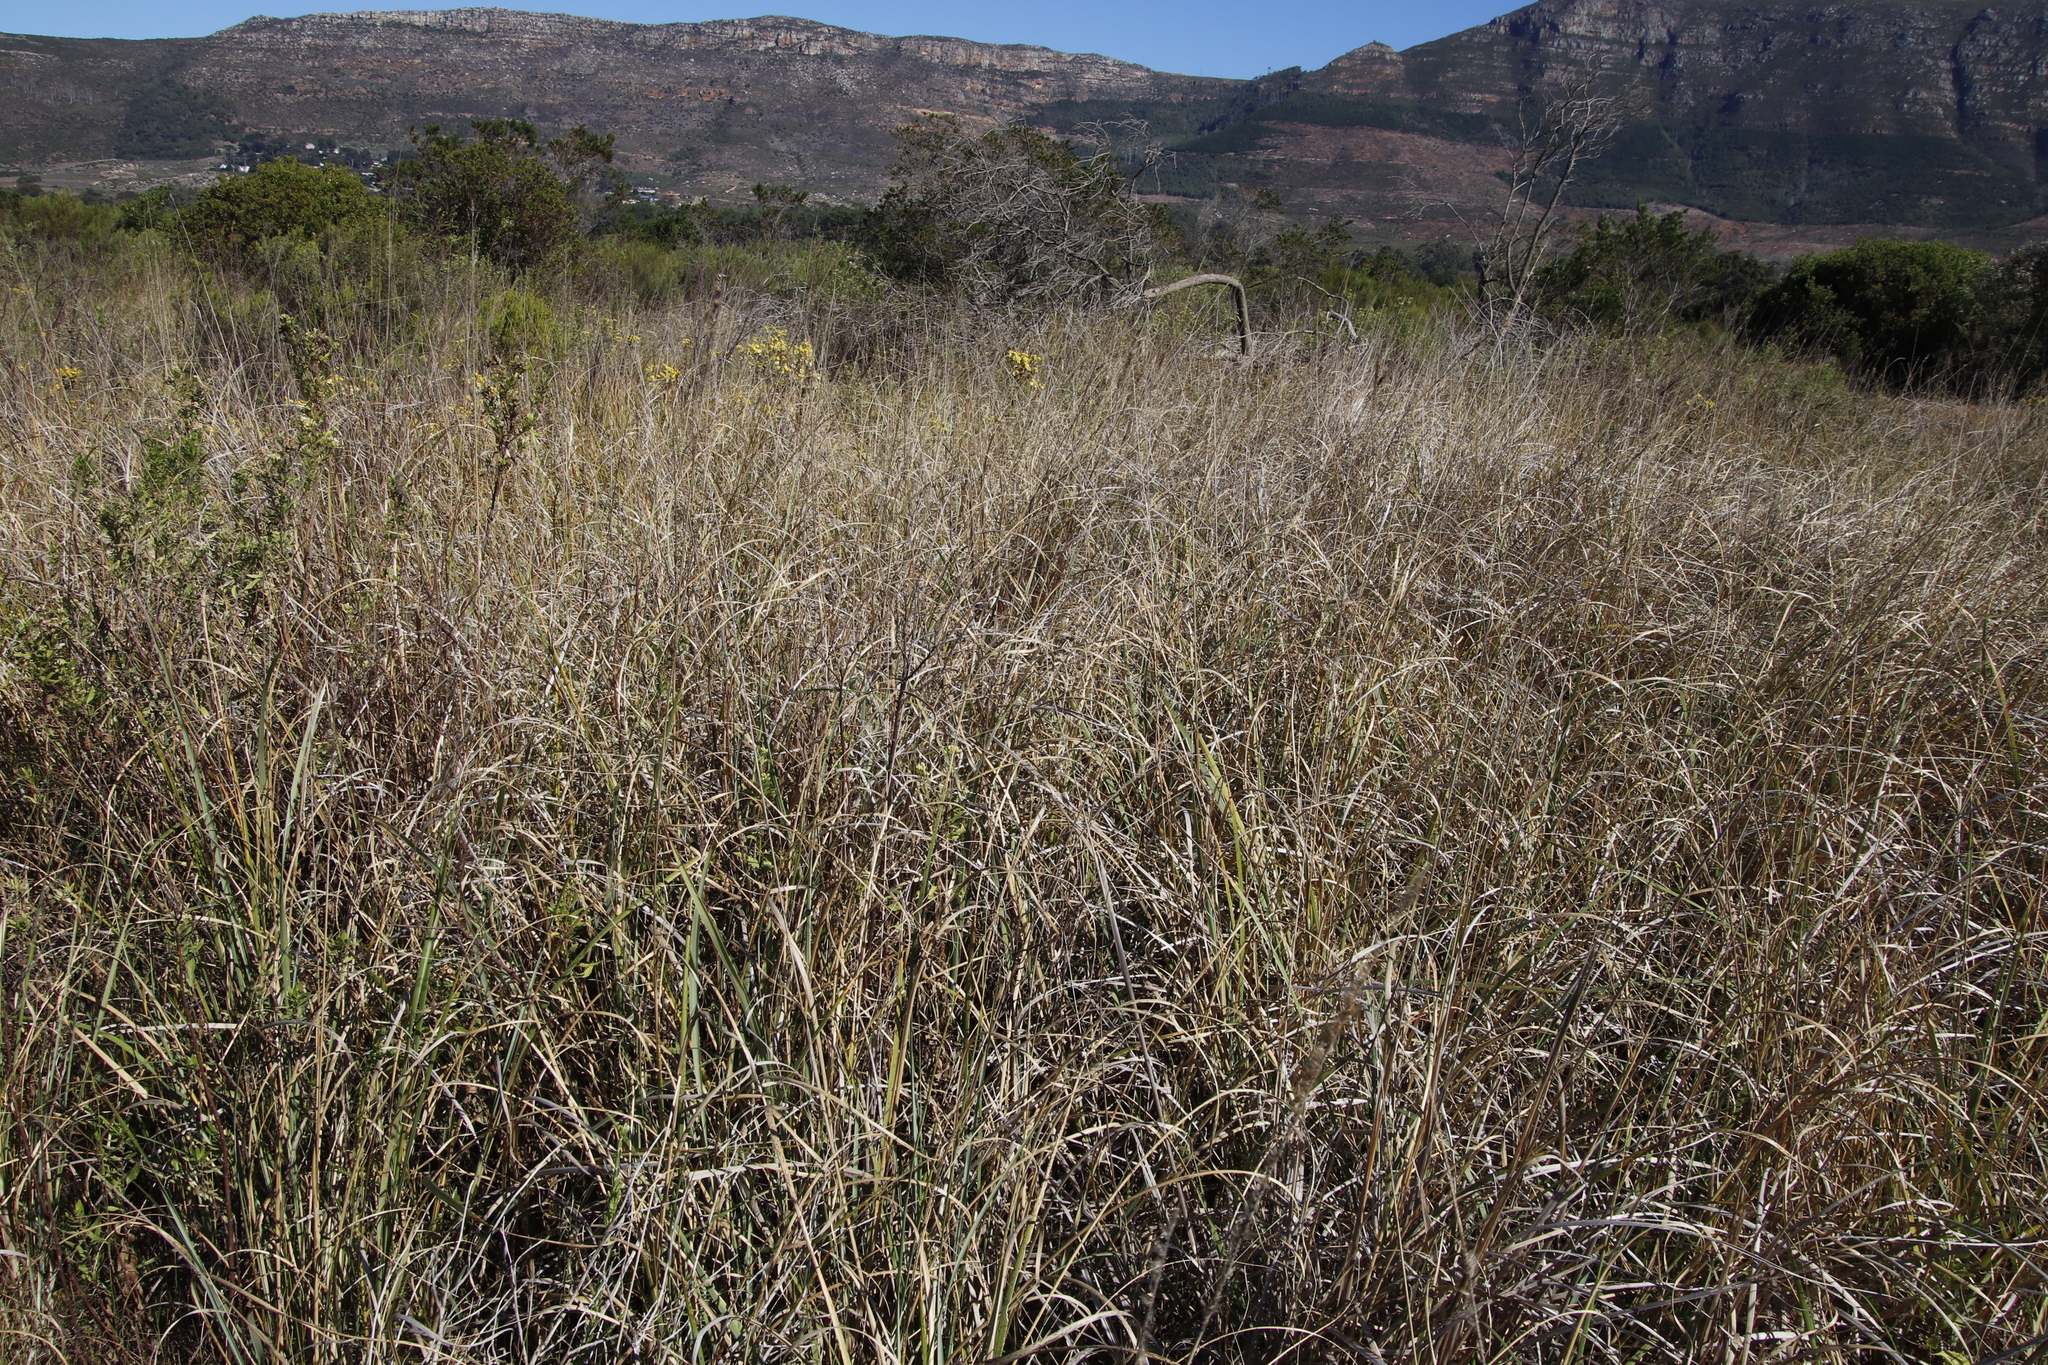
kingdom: Plantae
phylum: Tracheophyta
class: Liliopsida
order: Poales
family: Poaceae
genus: Paspalum
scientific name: Paspalum urvillei
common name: Vasey's grass
